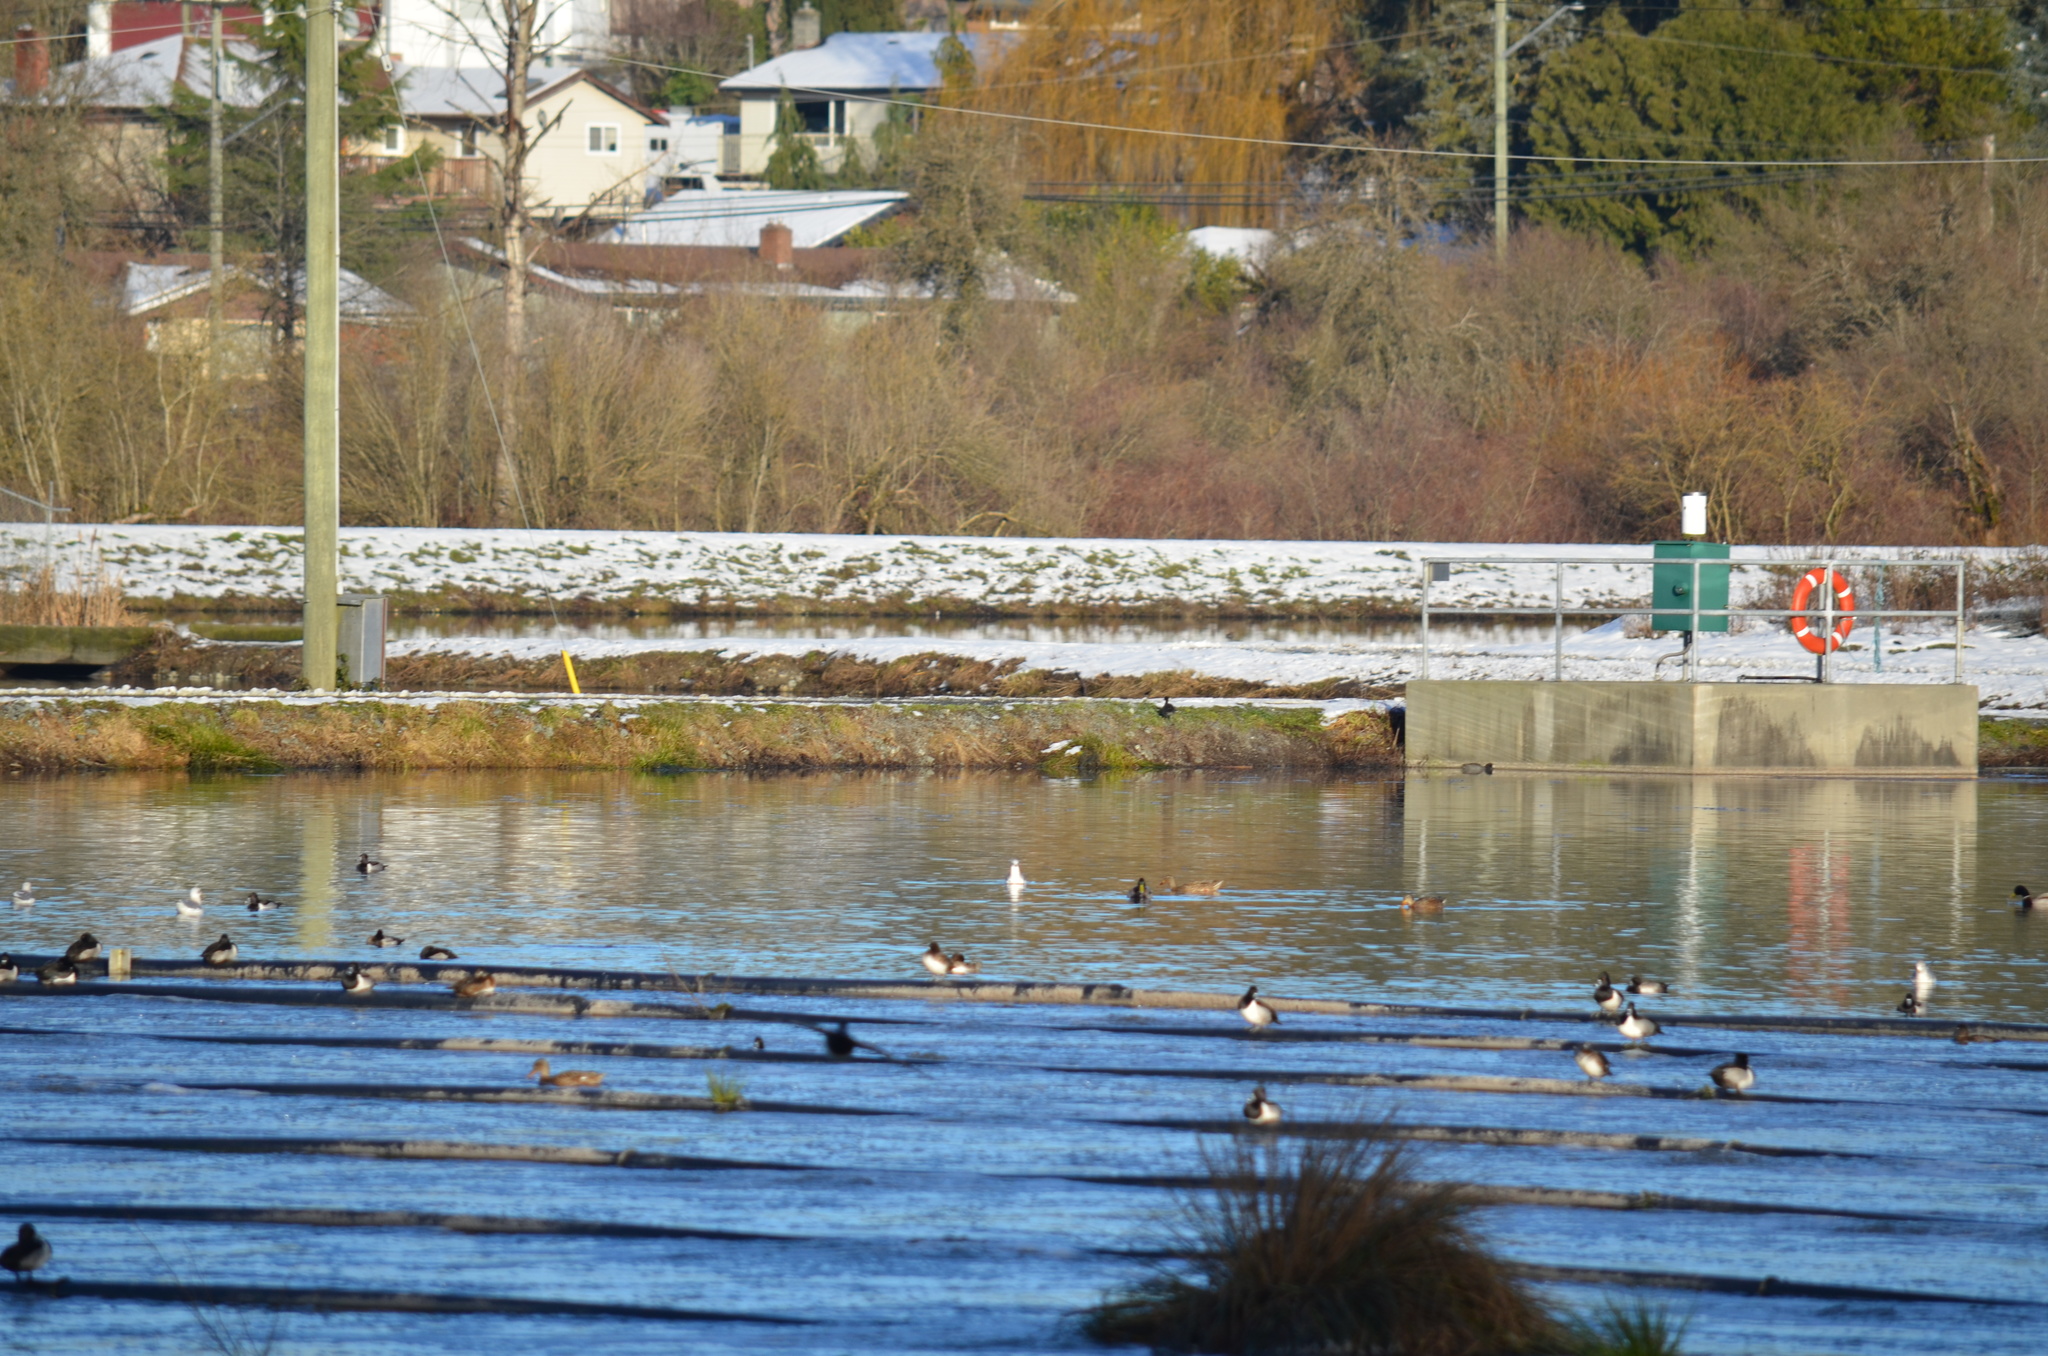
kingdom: Animalia
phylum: Chordata
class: Aves
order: Gruiformes
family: Rallidae
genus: Fulica
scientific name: Fulica americana
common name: American coot
